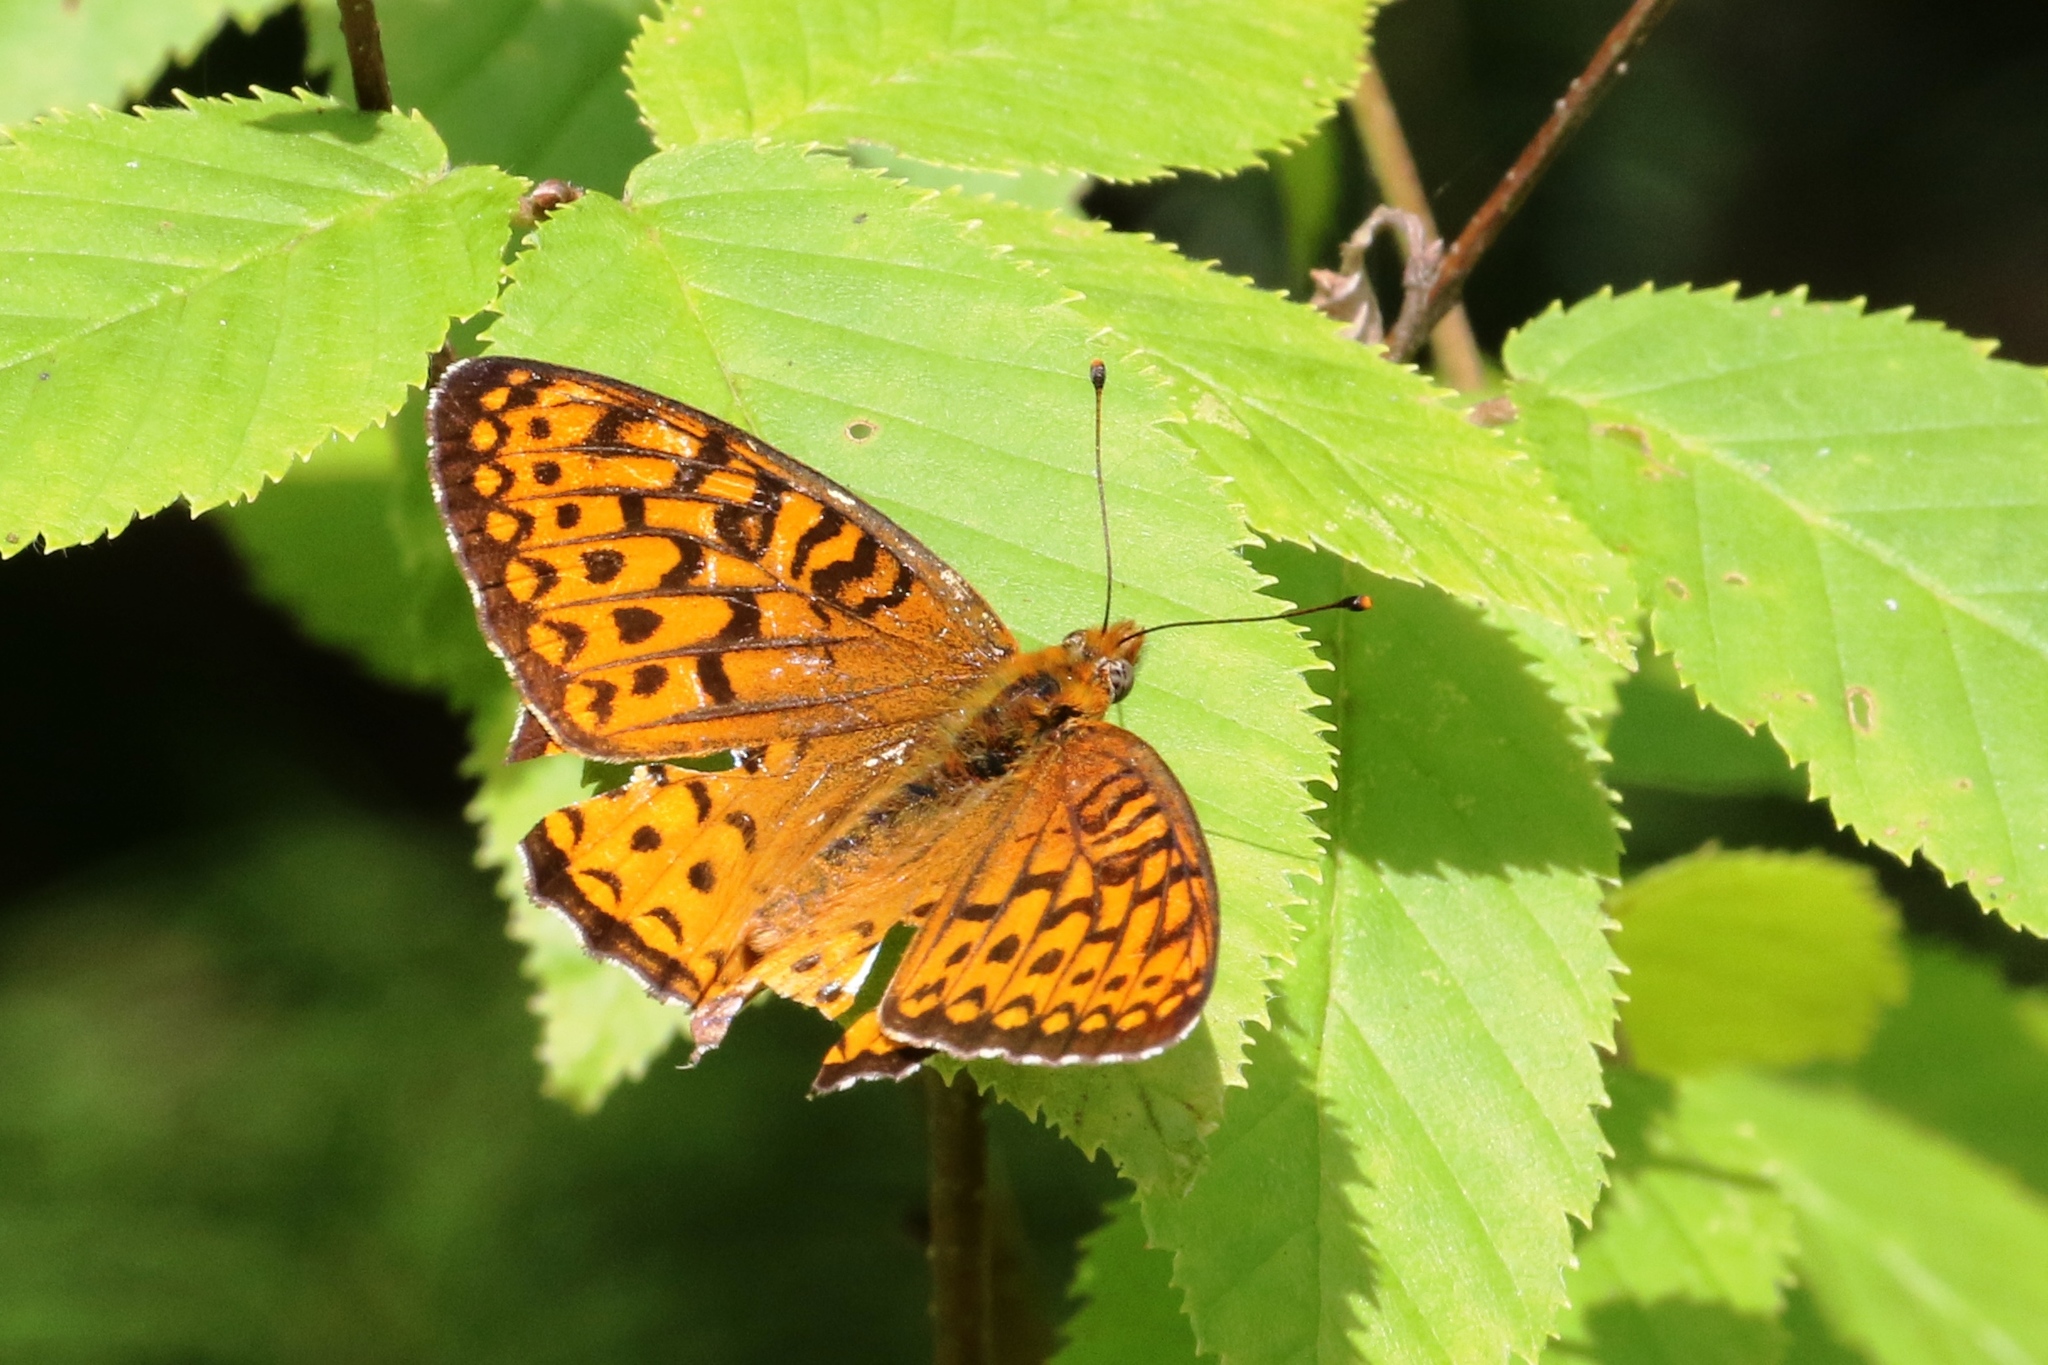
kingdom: Animalia
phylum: Arthropoda
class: Insecta
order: Lepidoptera
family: Nymphalidae
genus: Speyeria
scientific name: Speyeria atlantis
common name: Atlantis fritillary
